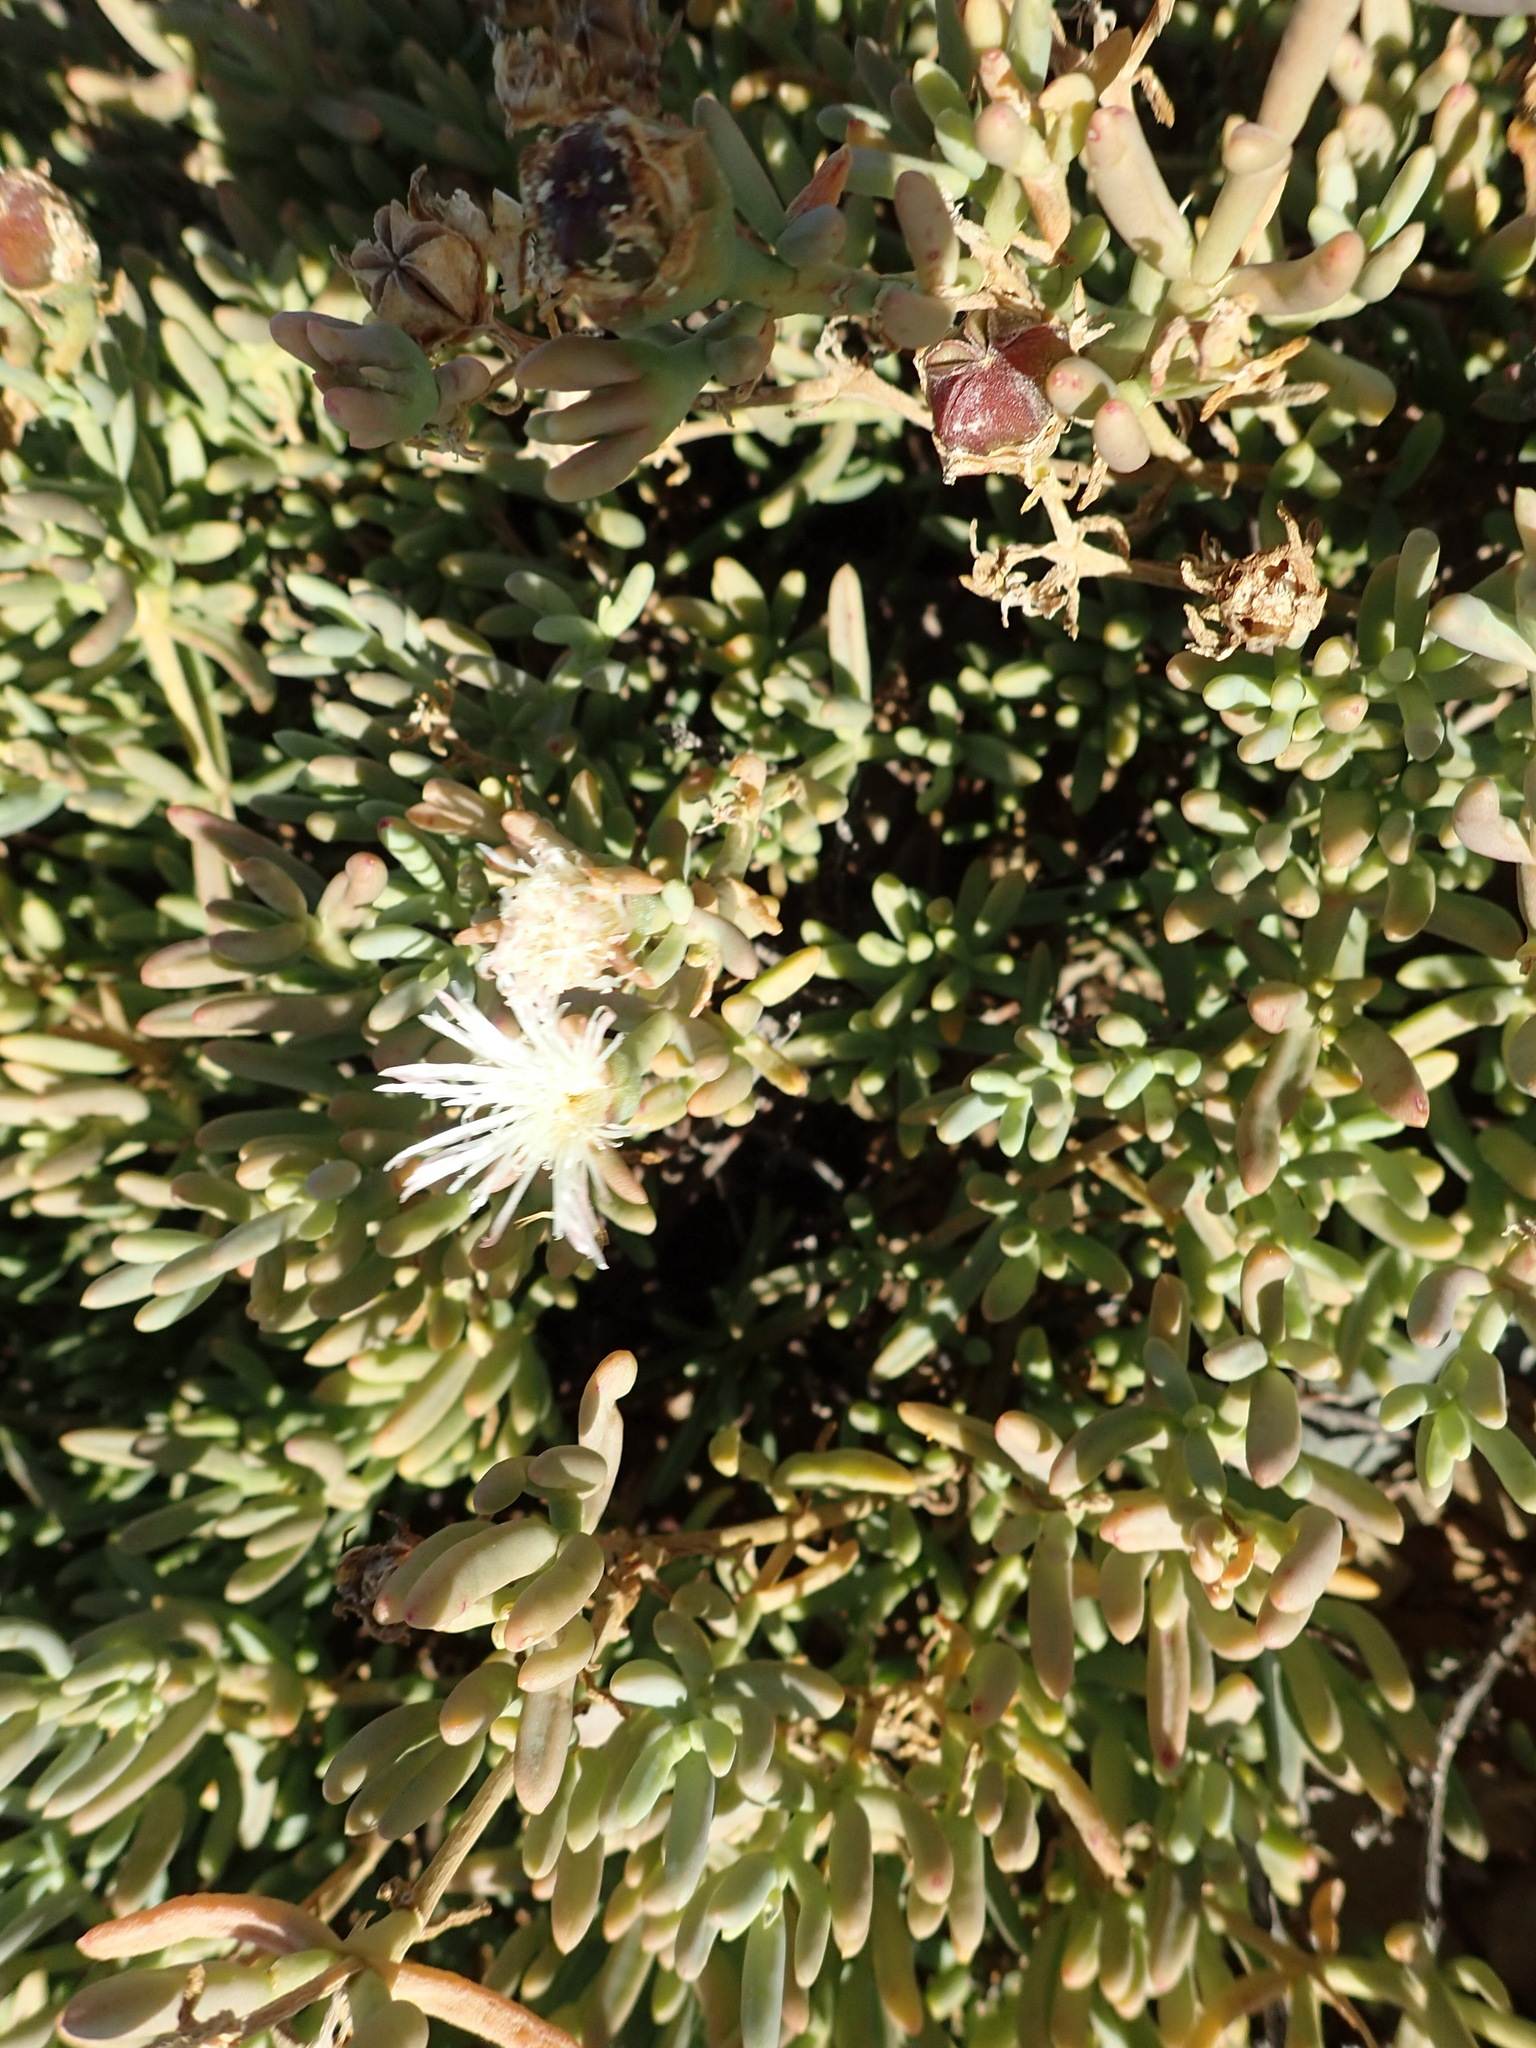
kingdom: Plantae
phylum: Tracheophyta
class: Magnoliopsida
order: Caryophyllales
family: Aizoaceae
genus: Mesembryanthemum
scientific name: Mesembryanthemum splendens
